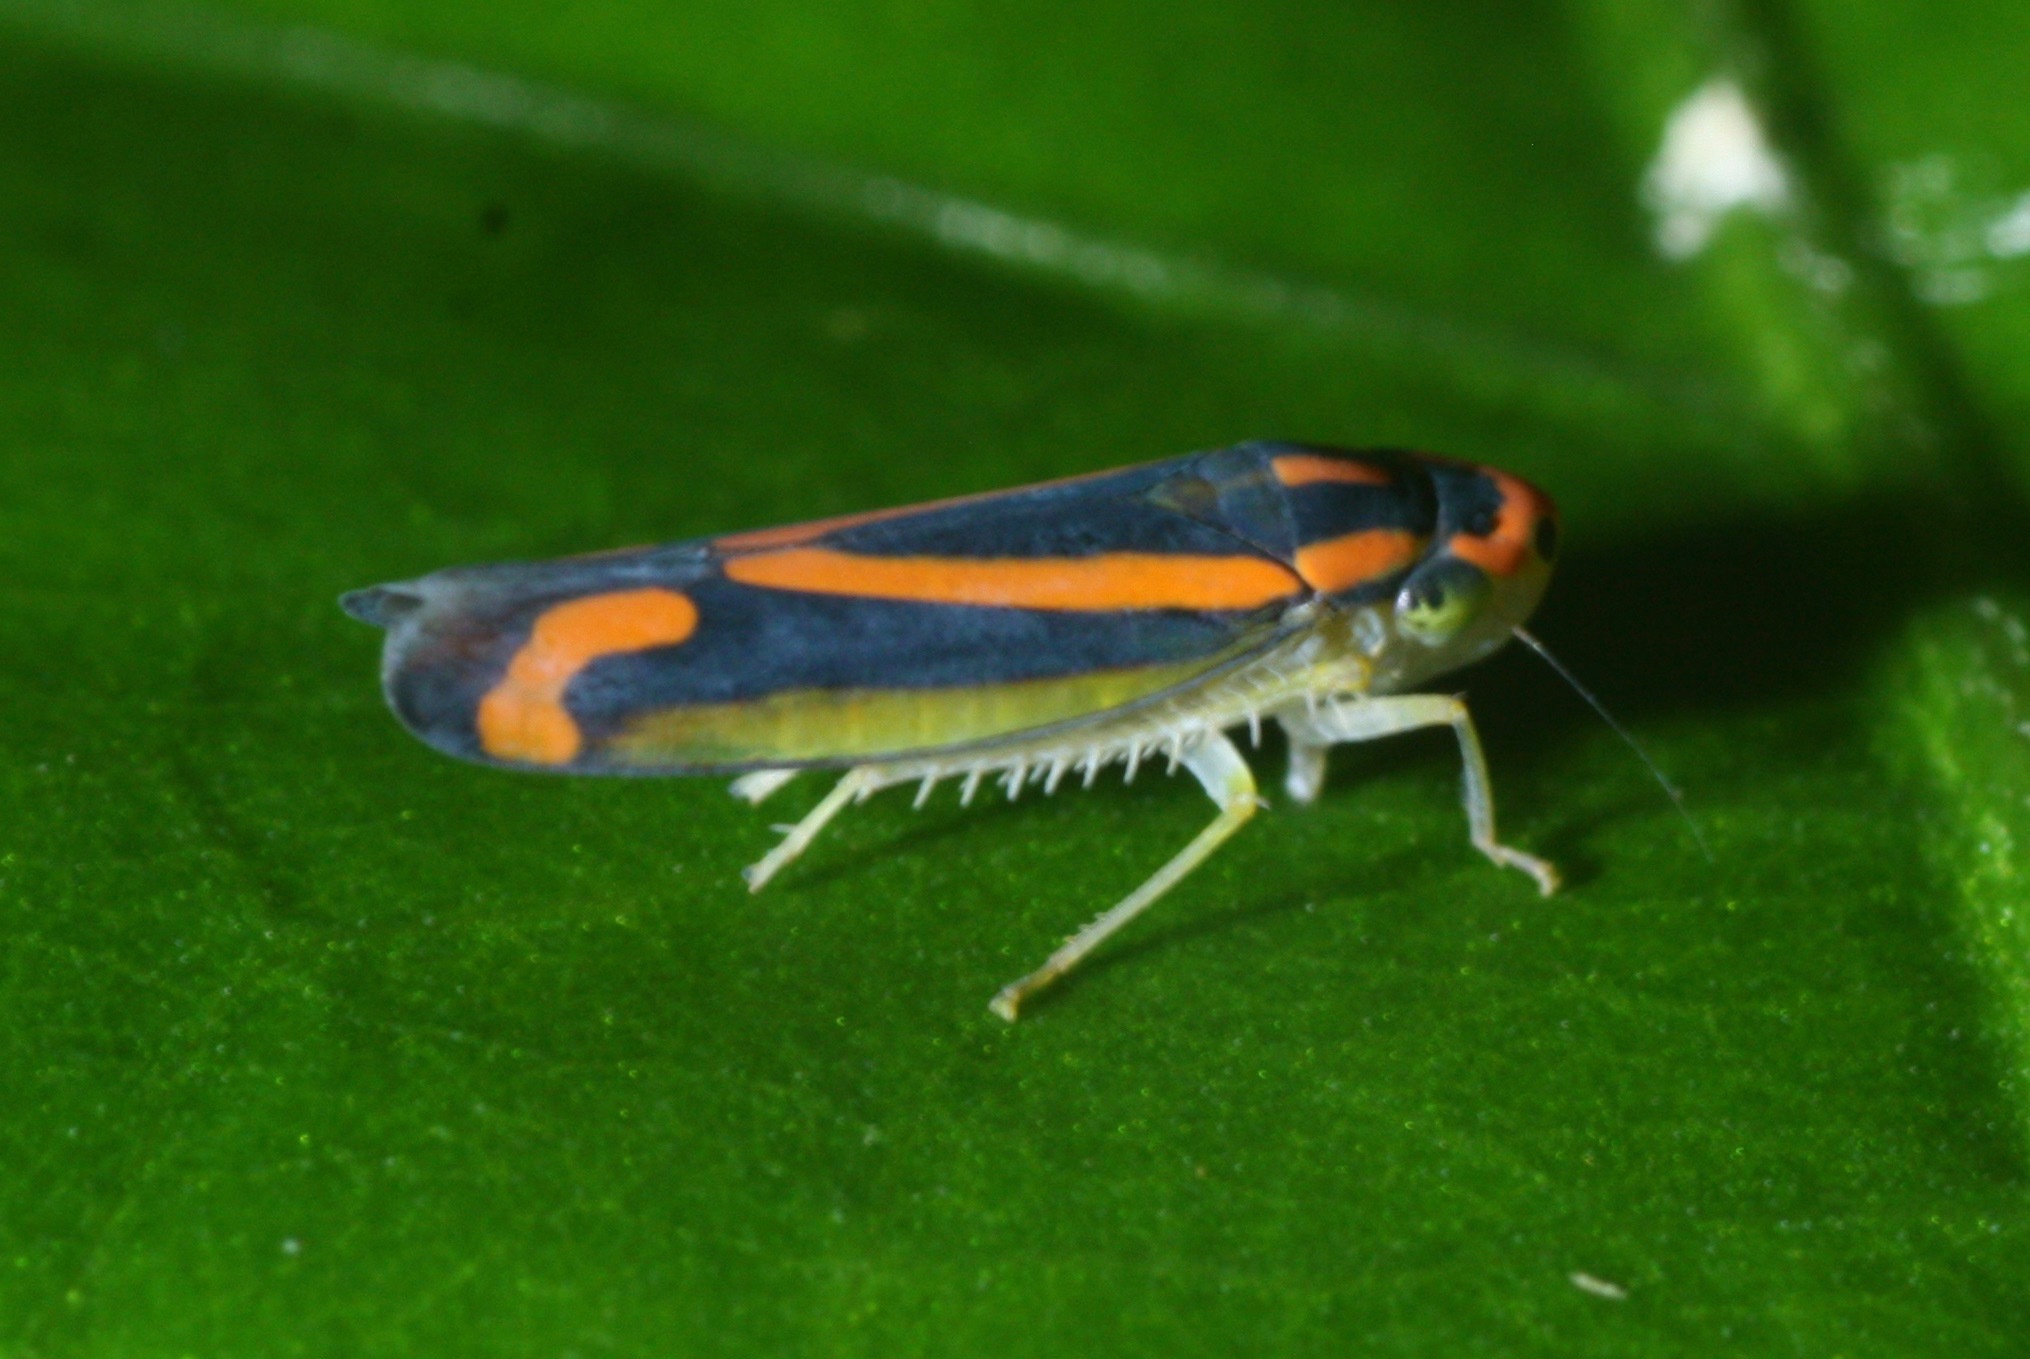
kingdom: Animalia
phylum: Arthropoda
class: Insecta
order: Hemiptera
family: Cicadellidae
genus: Soosiulus
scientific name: Soosiulus salutaris
